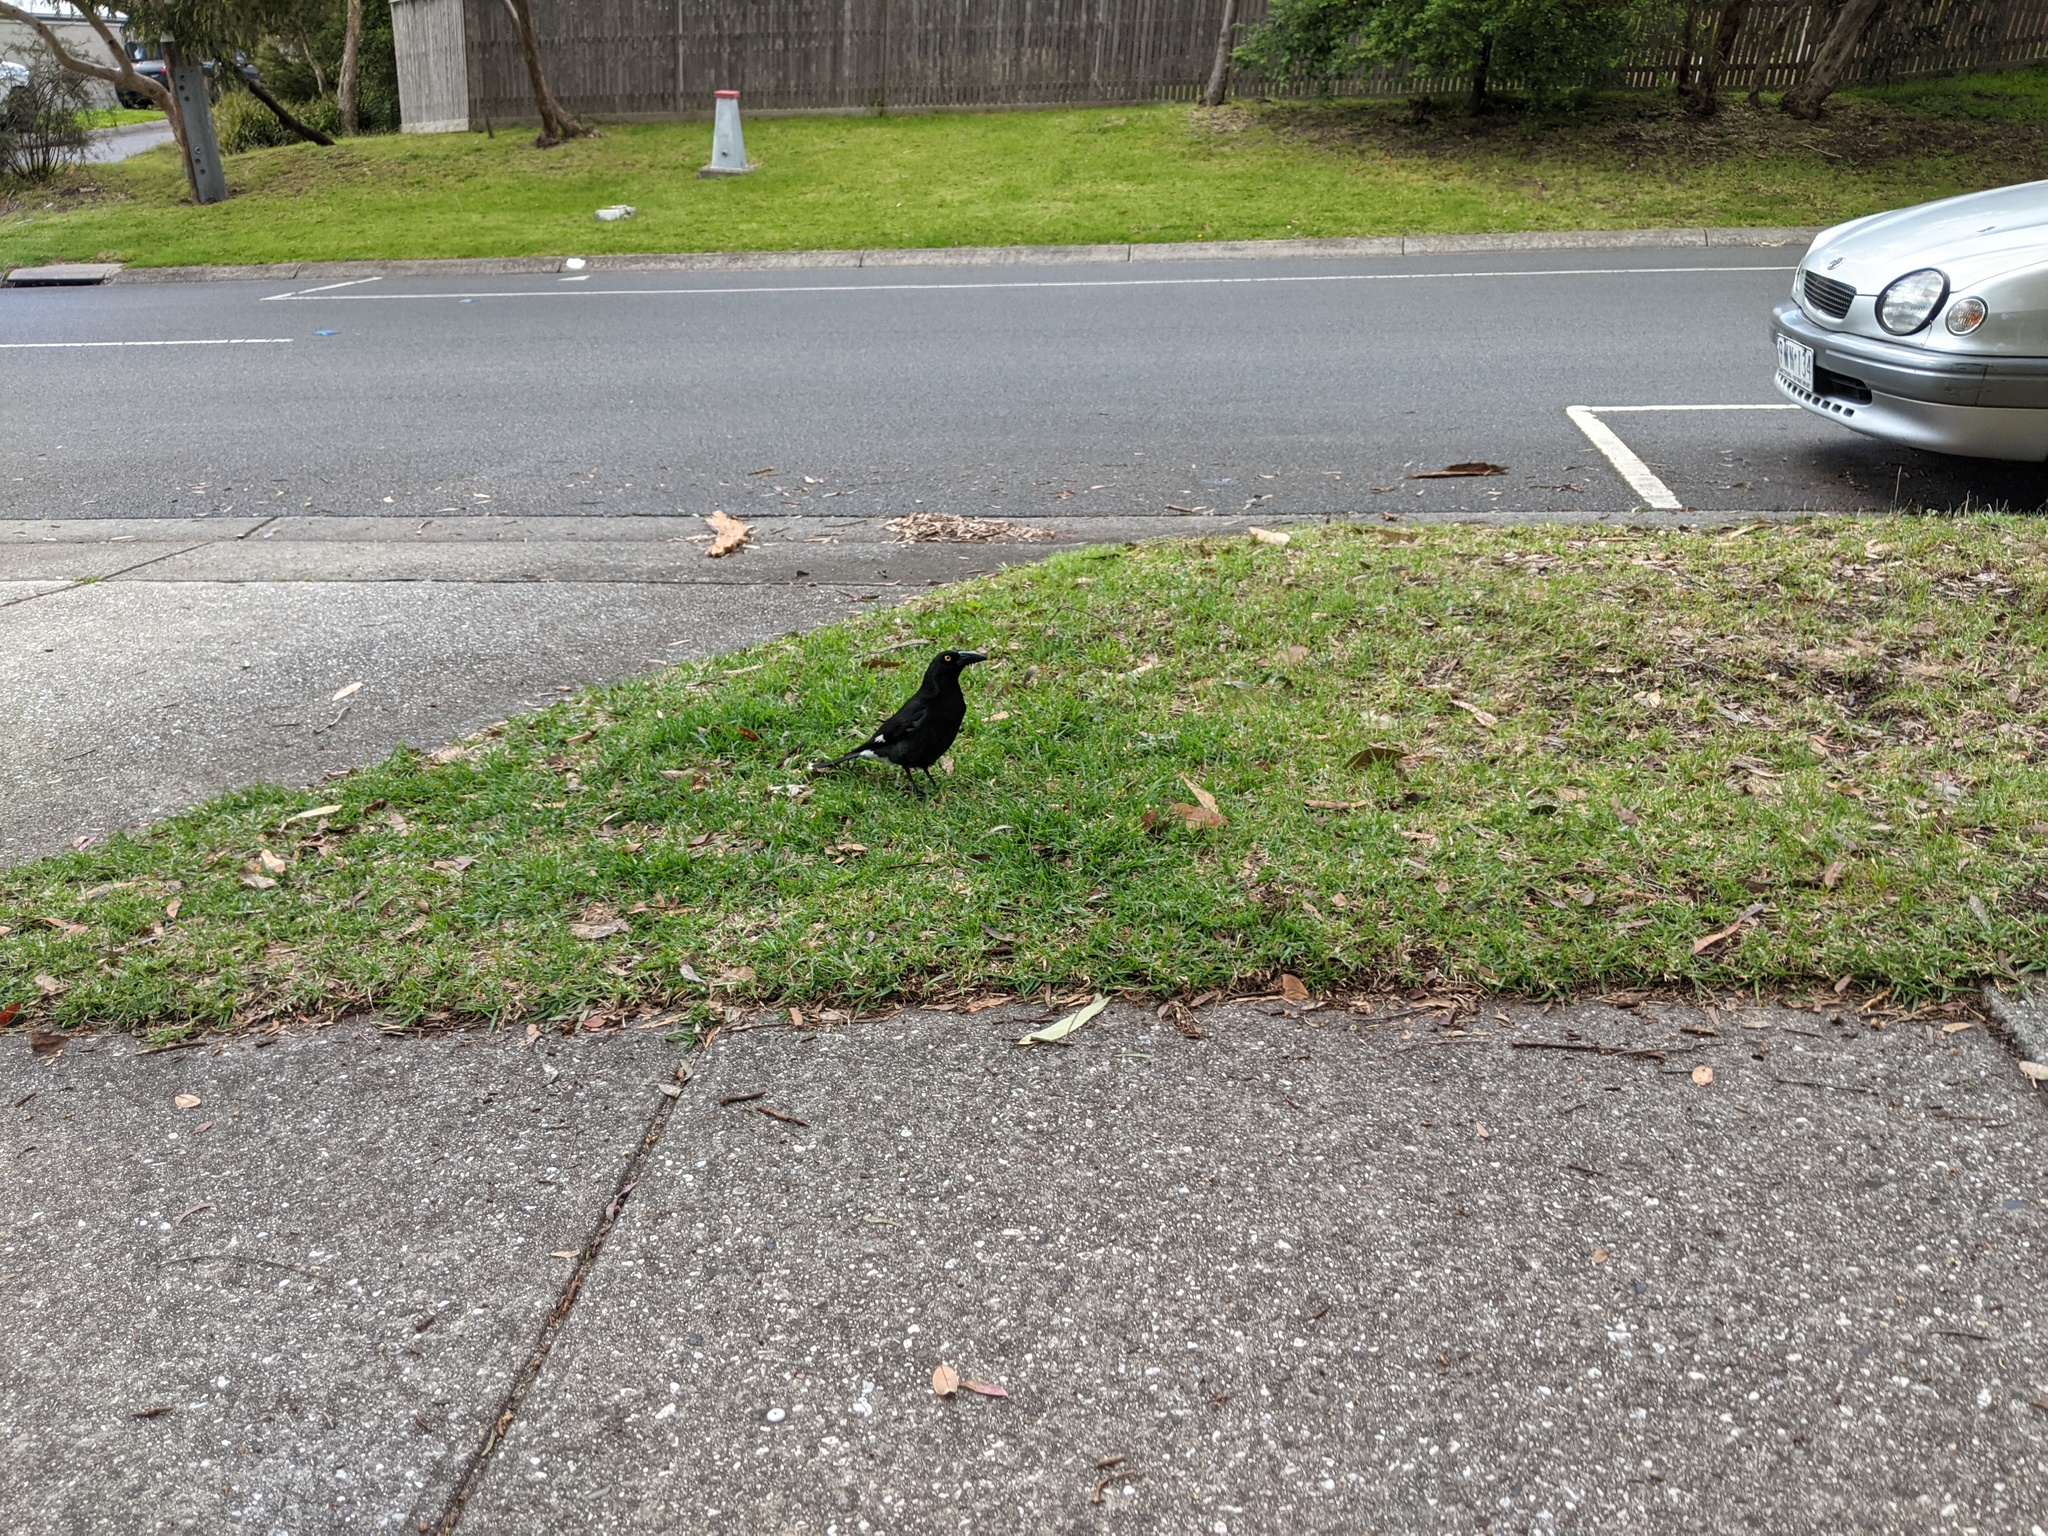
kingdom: Animalia
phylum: Chordata
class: Aves
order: Passeriformes
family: Cracticidae
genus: Strepera
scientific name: Strepera graculina
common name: Pied currawong
